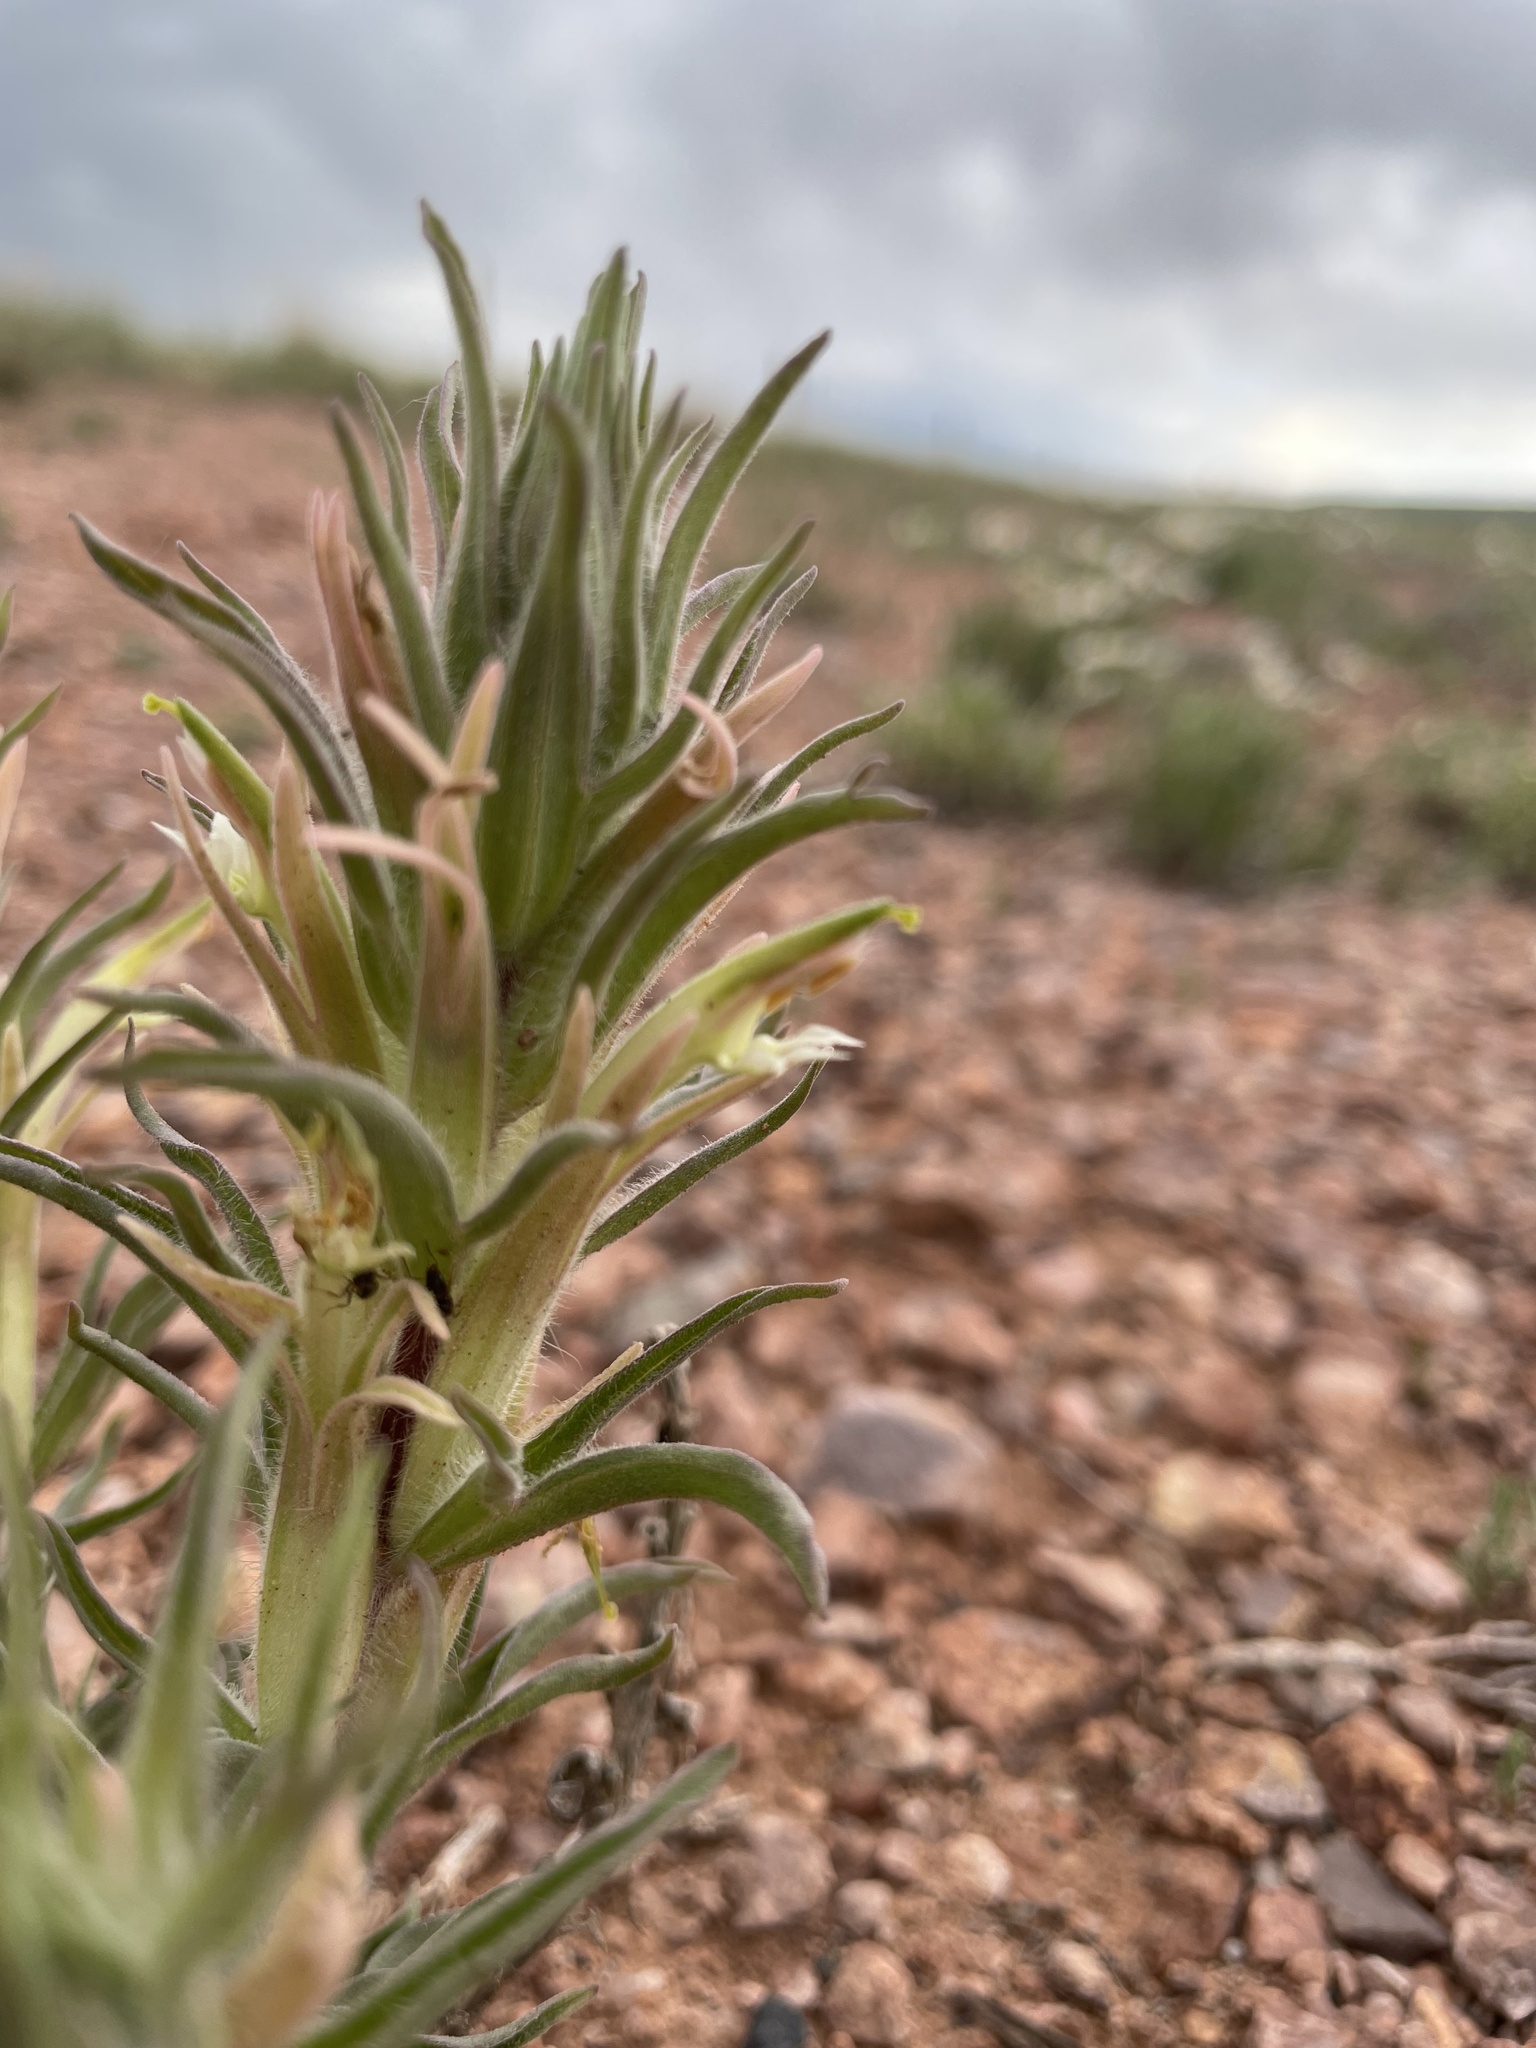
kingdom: Plantae
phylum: Tracheophyta
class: Magnoliopsida
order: Lamiales
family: Orobanchaceae
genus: Castilleja
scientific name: Castilleja sessiliflora
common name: Downy paintbrush
